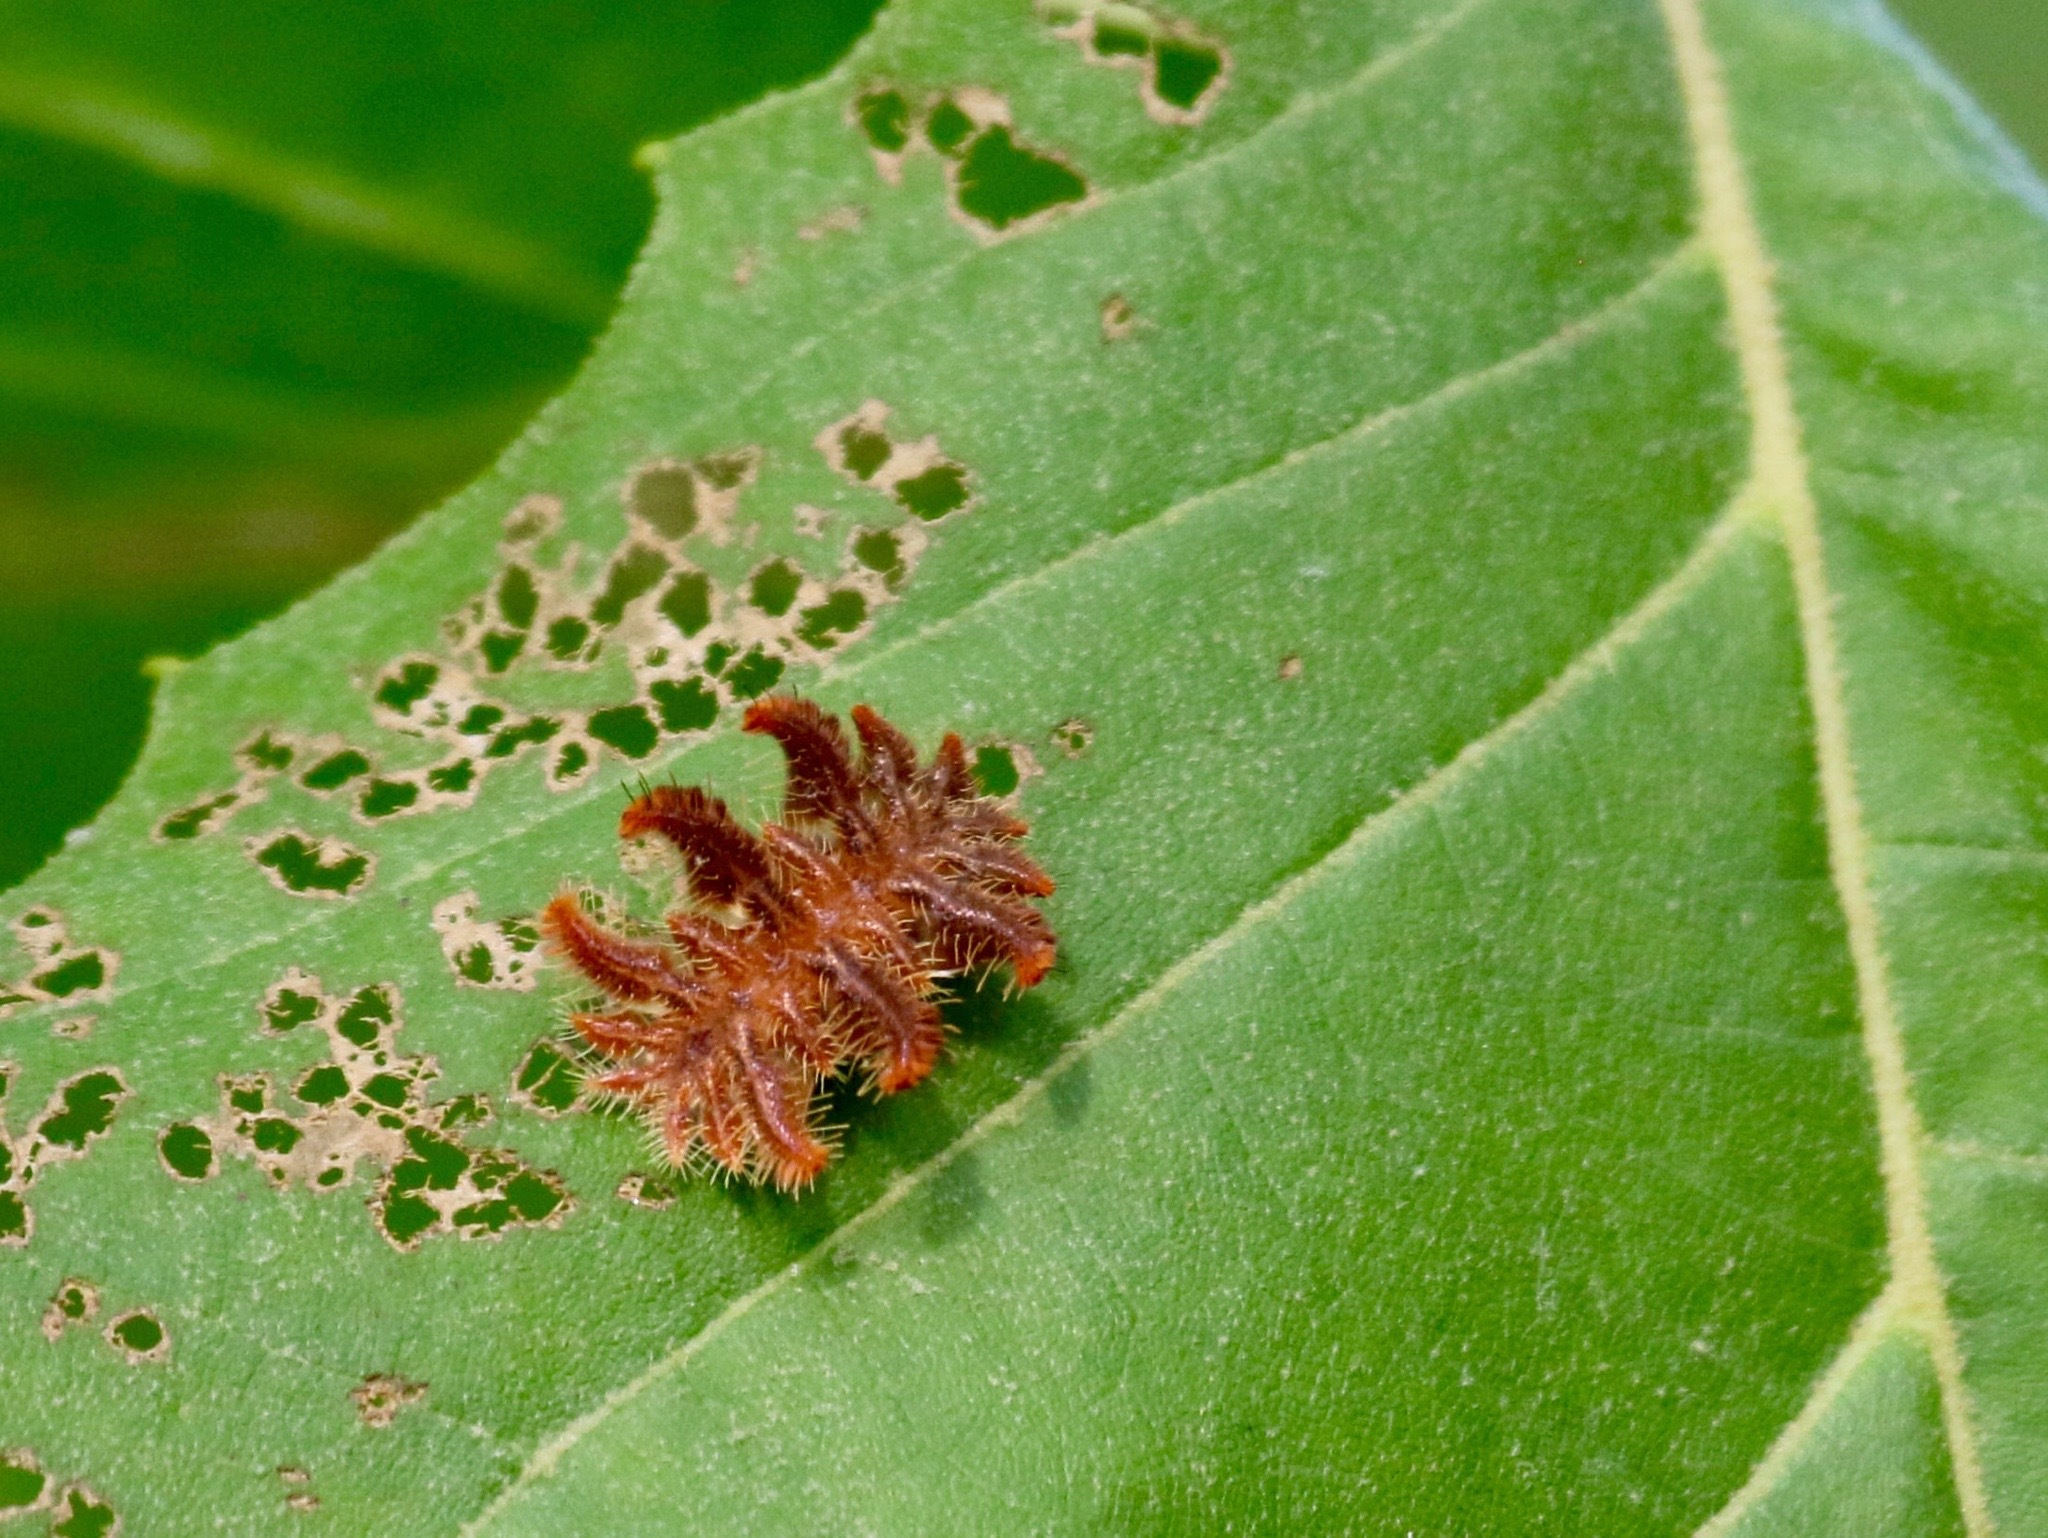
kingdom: Animalia
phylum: Arthropoda
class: Insecta
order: Lepidoptera
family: Limacodidae
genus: Phobetron
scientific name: Phobetron pithecium
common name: Hag moth
